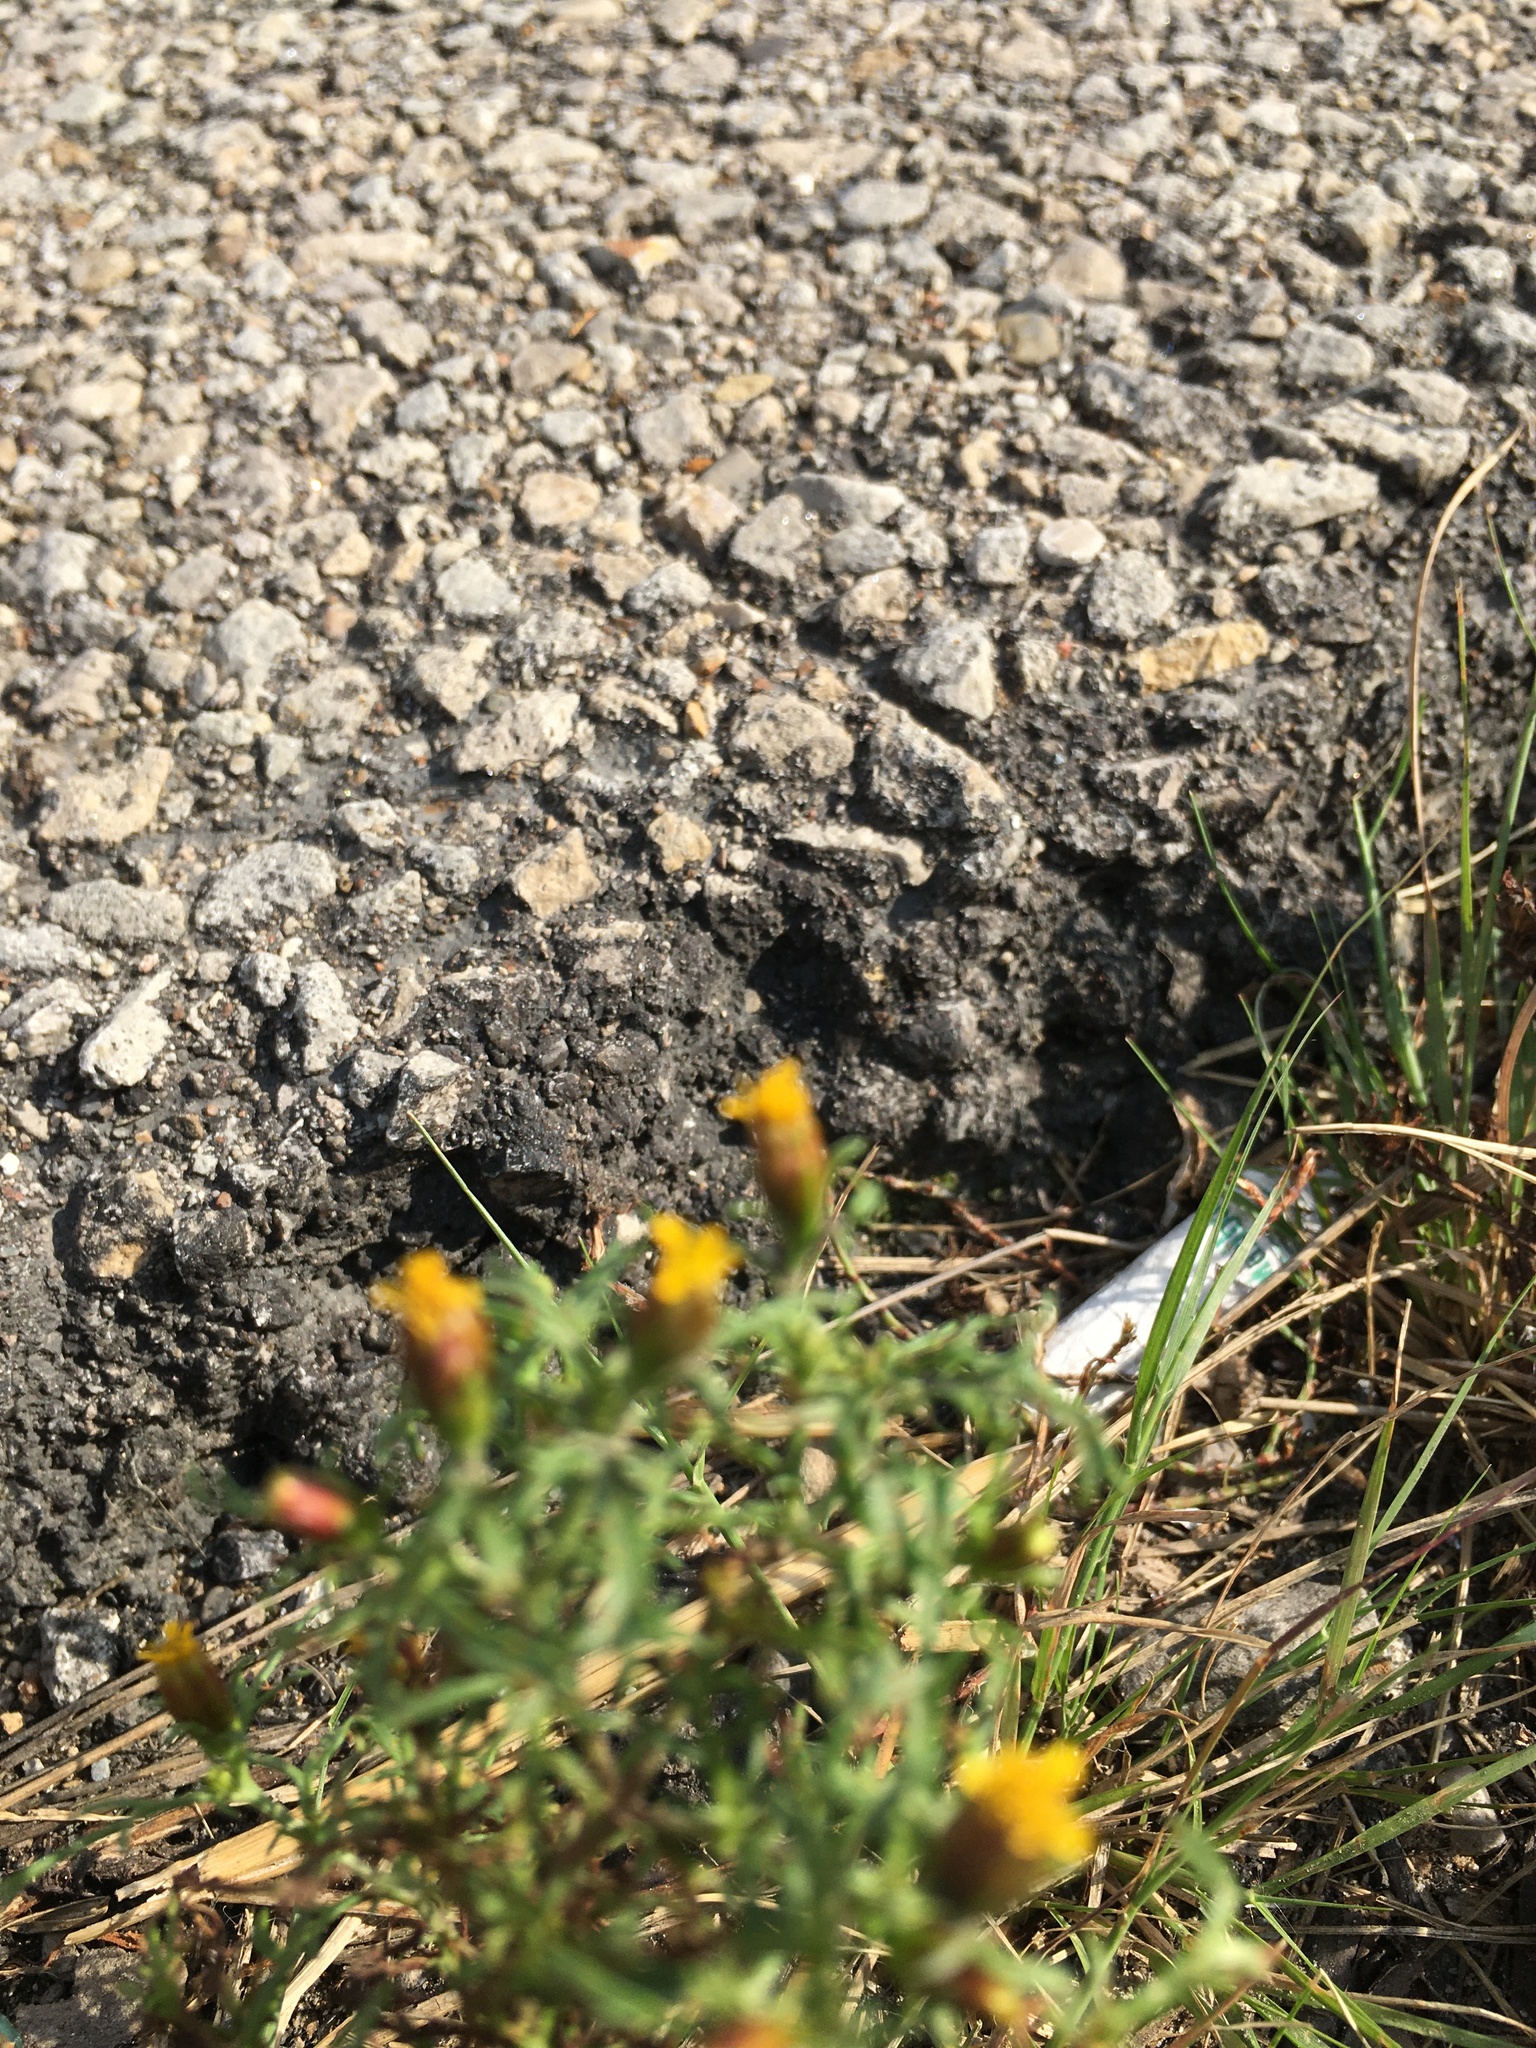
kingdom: Plantae
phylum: Tracheophyta
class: Magnoliopsida
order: Asterales
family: Asteraceae
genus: Dyssodia
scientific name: Dyssodia papposa
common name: Dogweed
